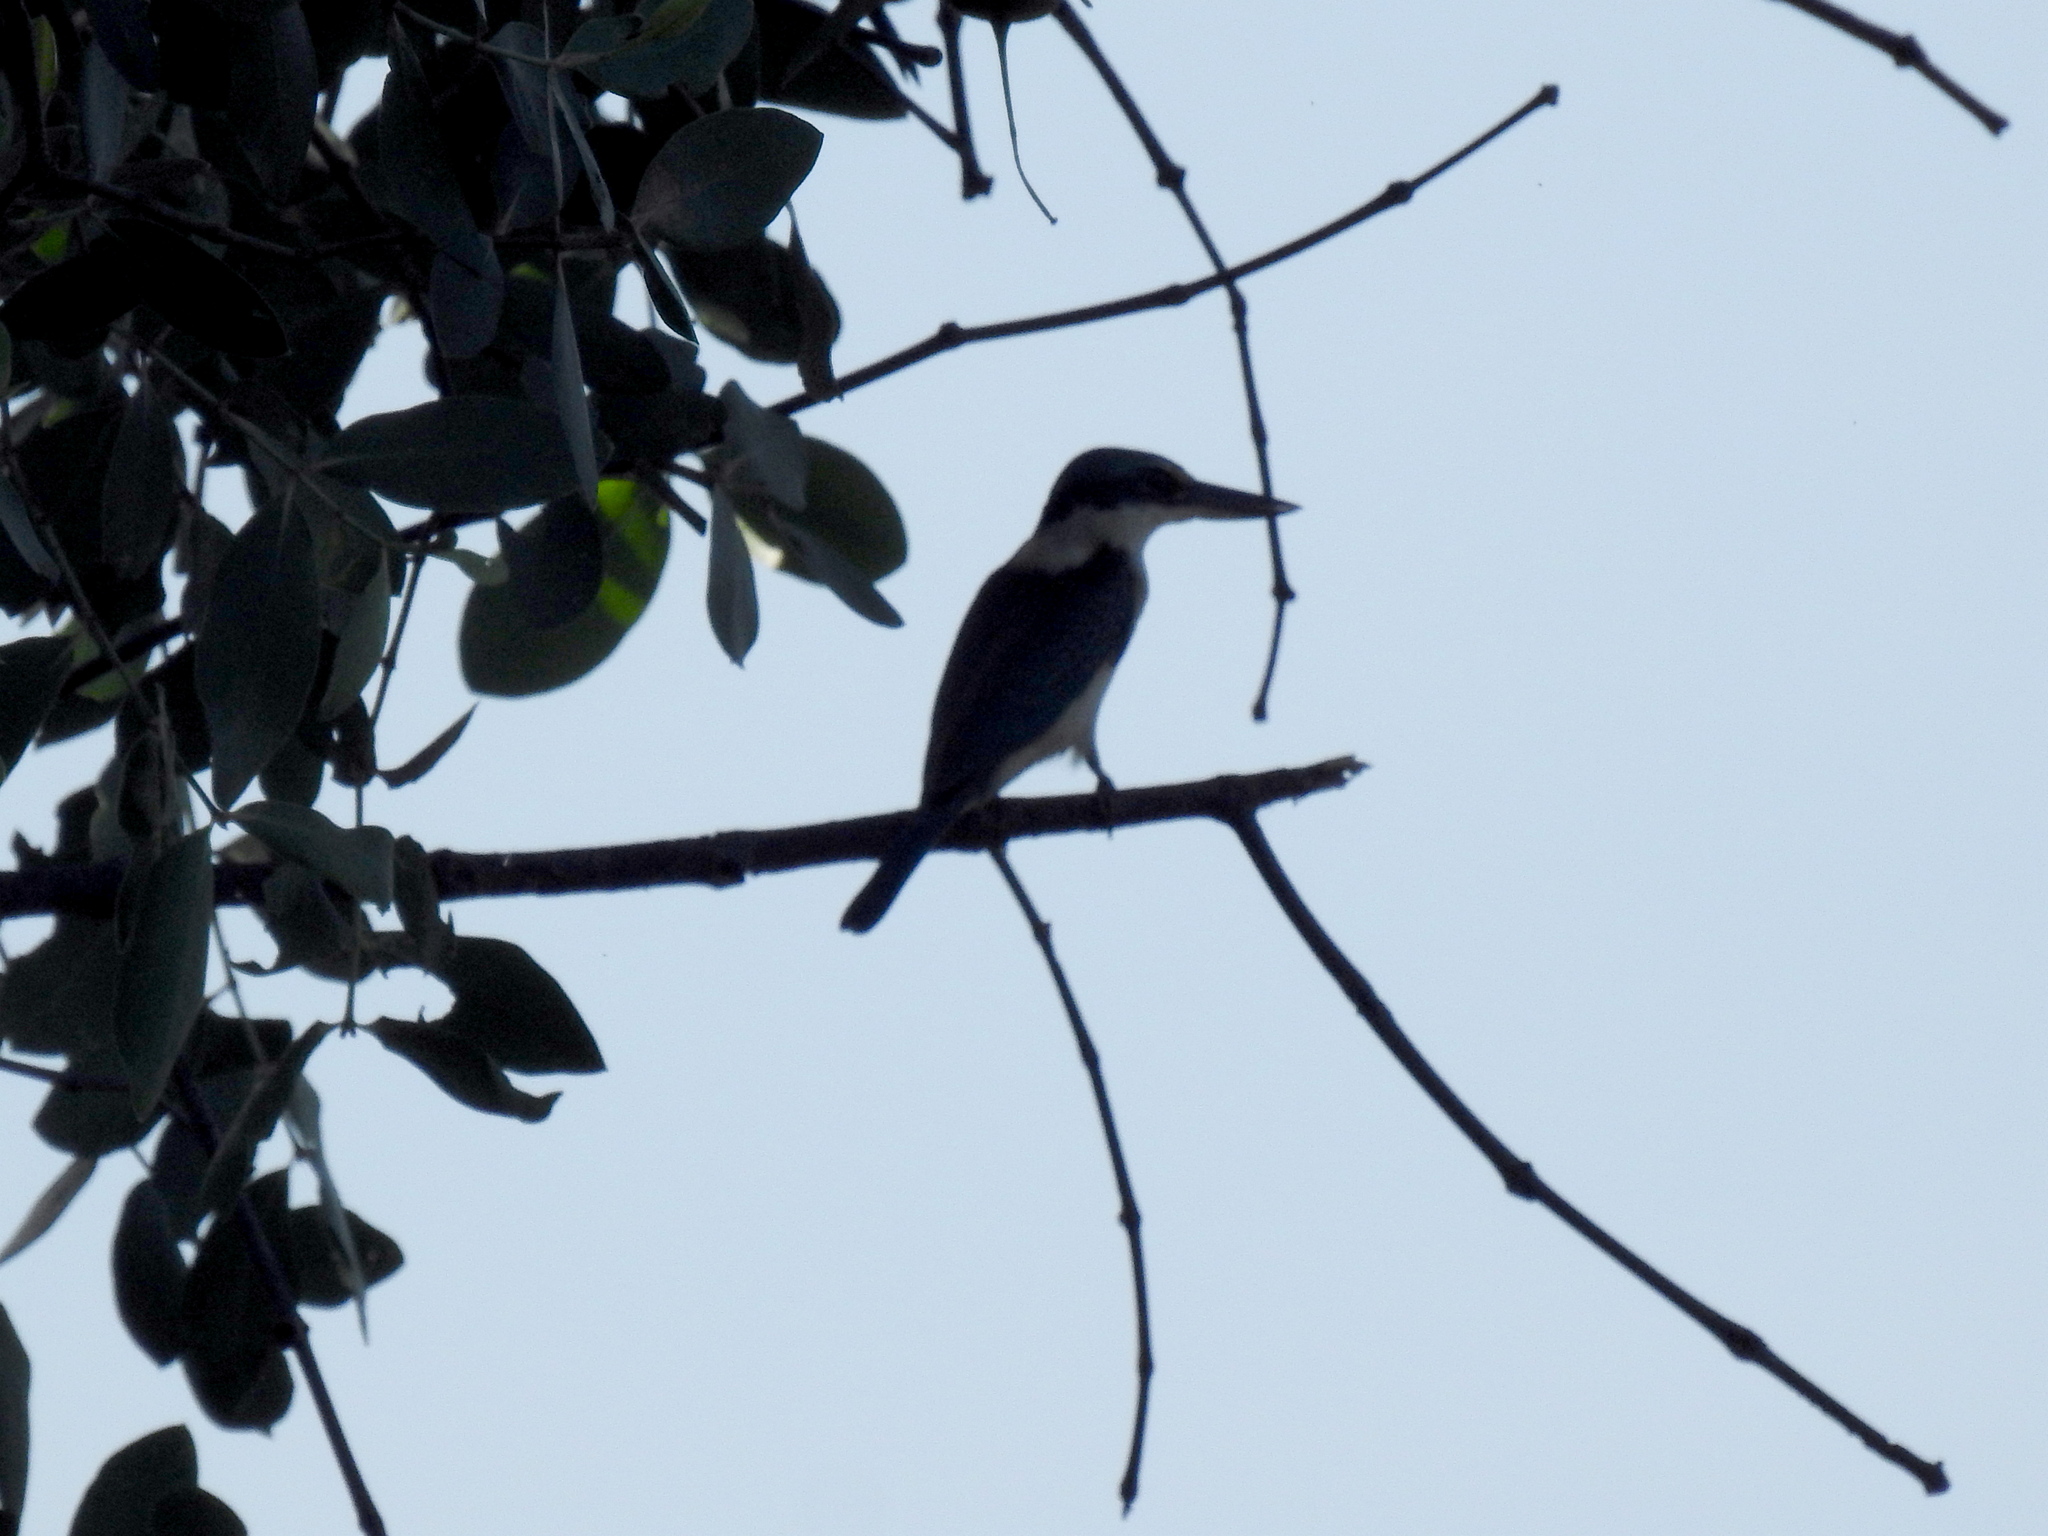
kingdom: Animalia
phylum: Chordata
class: Aves
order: Coraciiformes
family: Alcedinidae
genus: Todiramphus
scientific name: Todiramphus chloris
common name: Collared kingfisher
